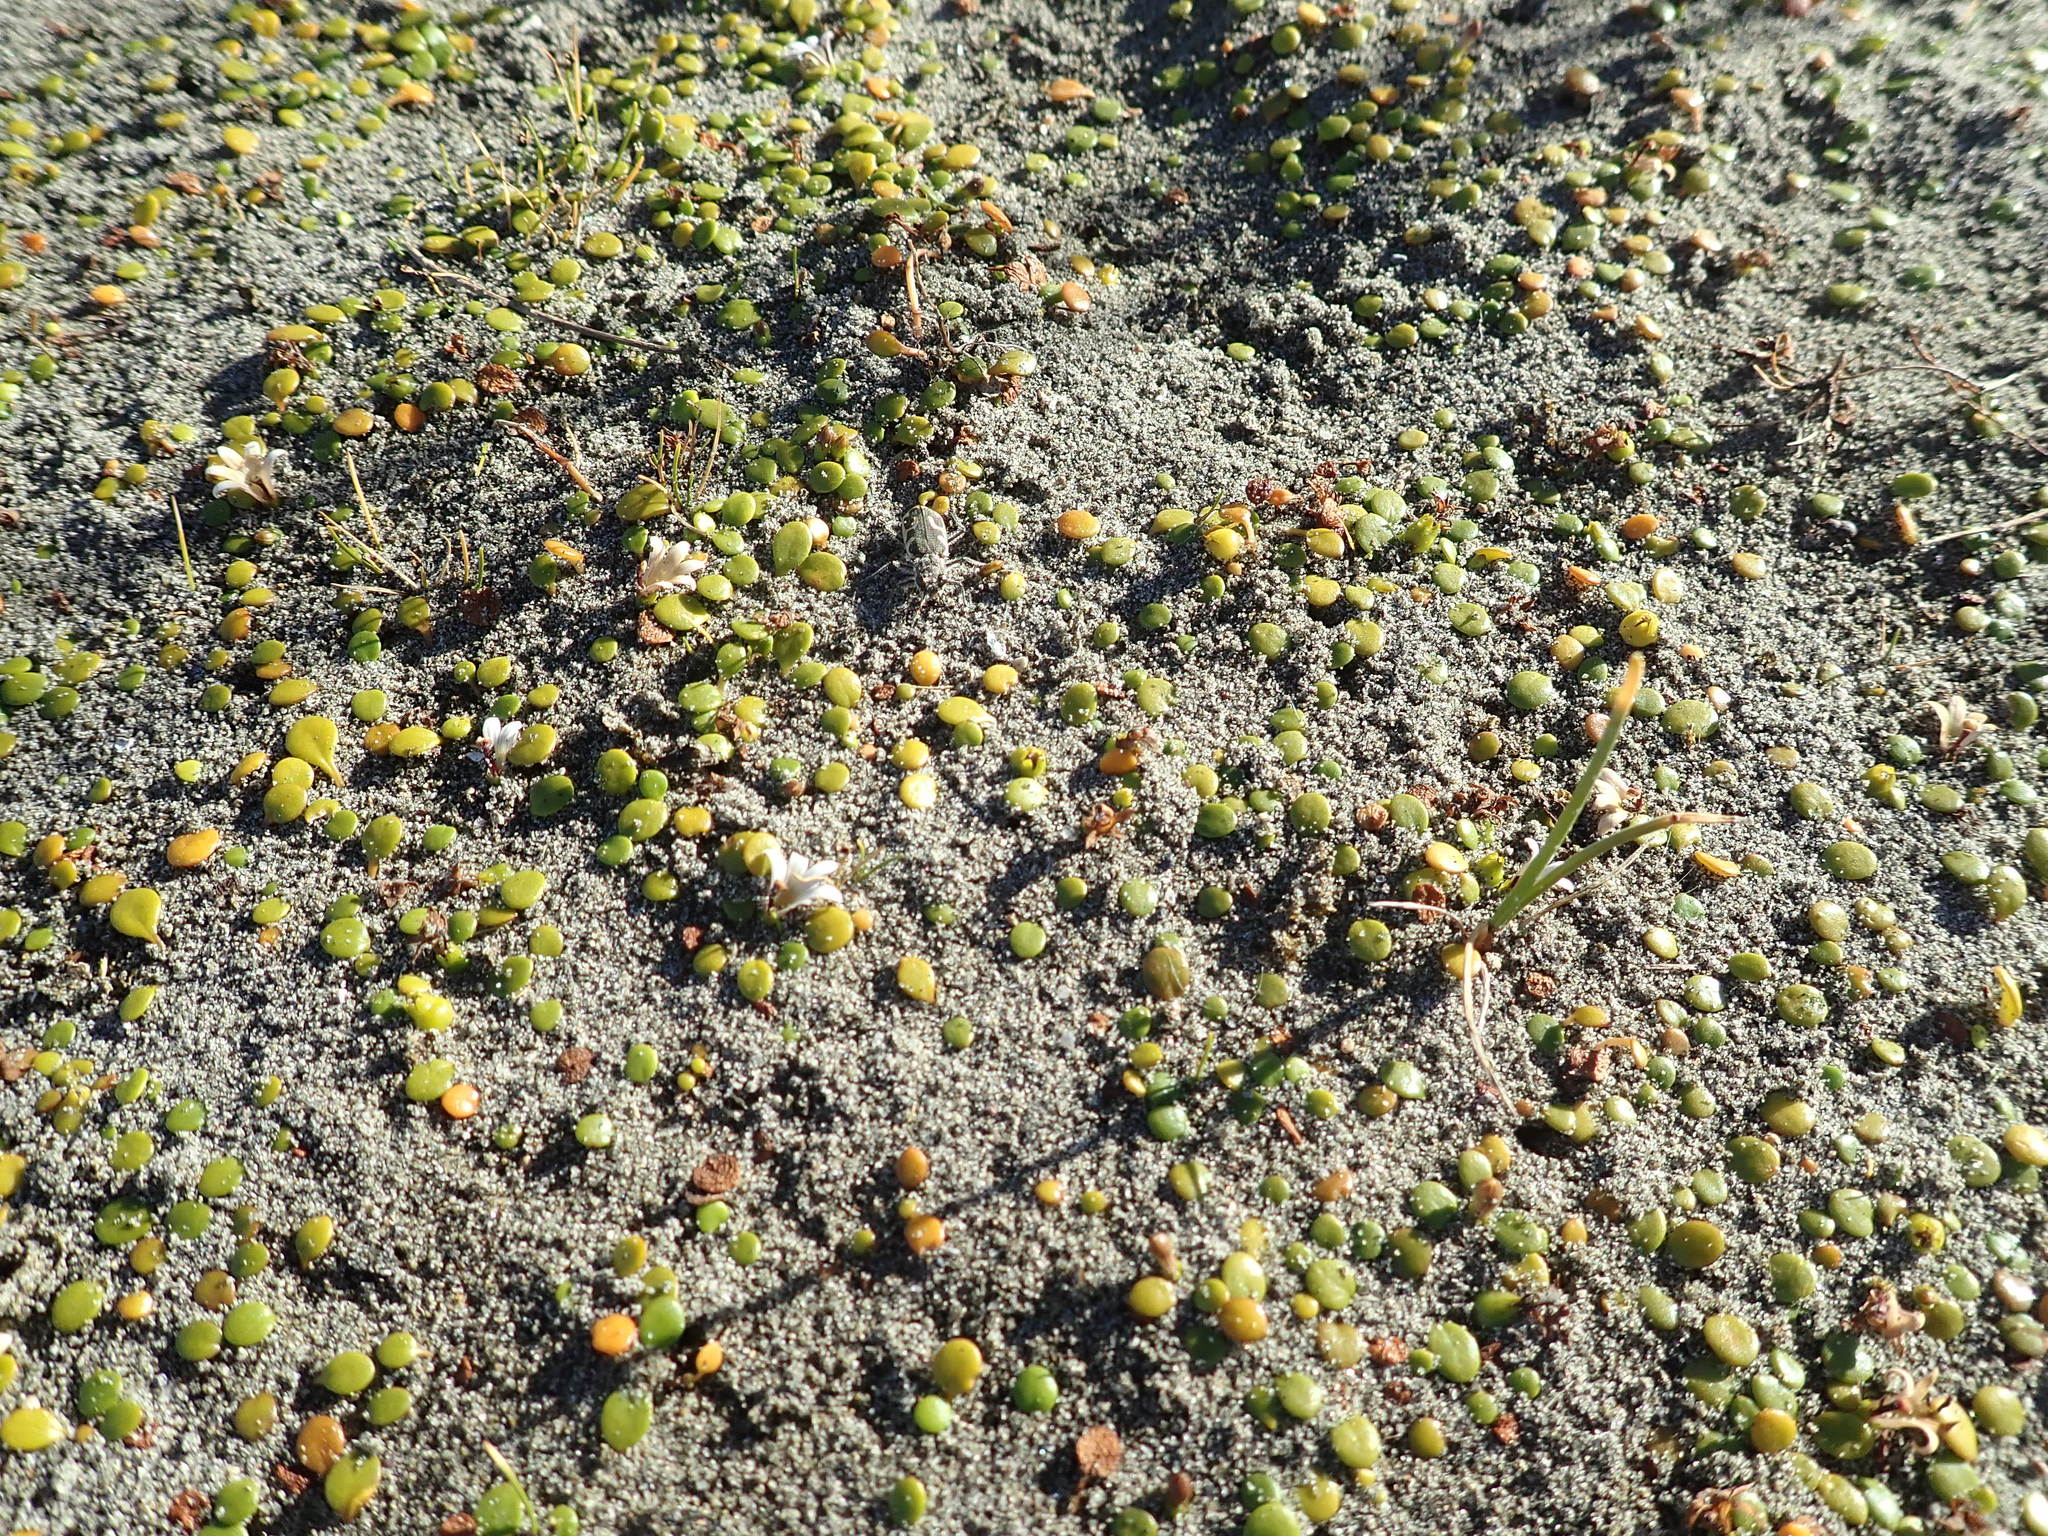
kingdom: Animalia
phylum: Arthropoda
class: Insecta
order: Coleoptera
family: Carabidae
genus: Zecicindela
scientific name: Zecicindela feredayi
